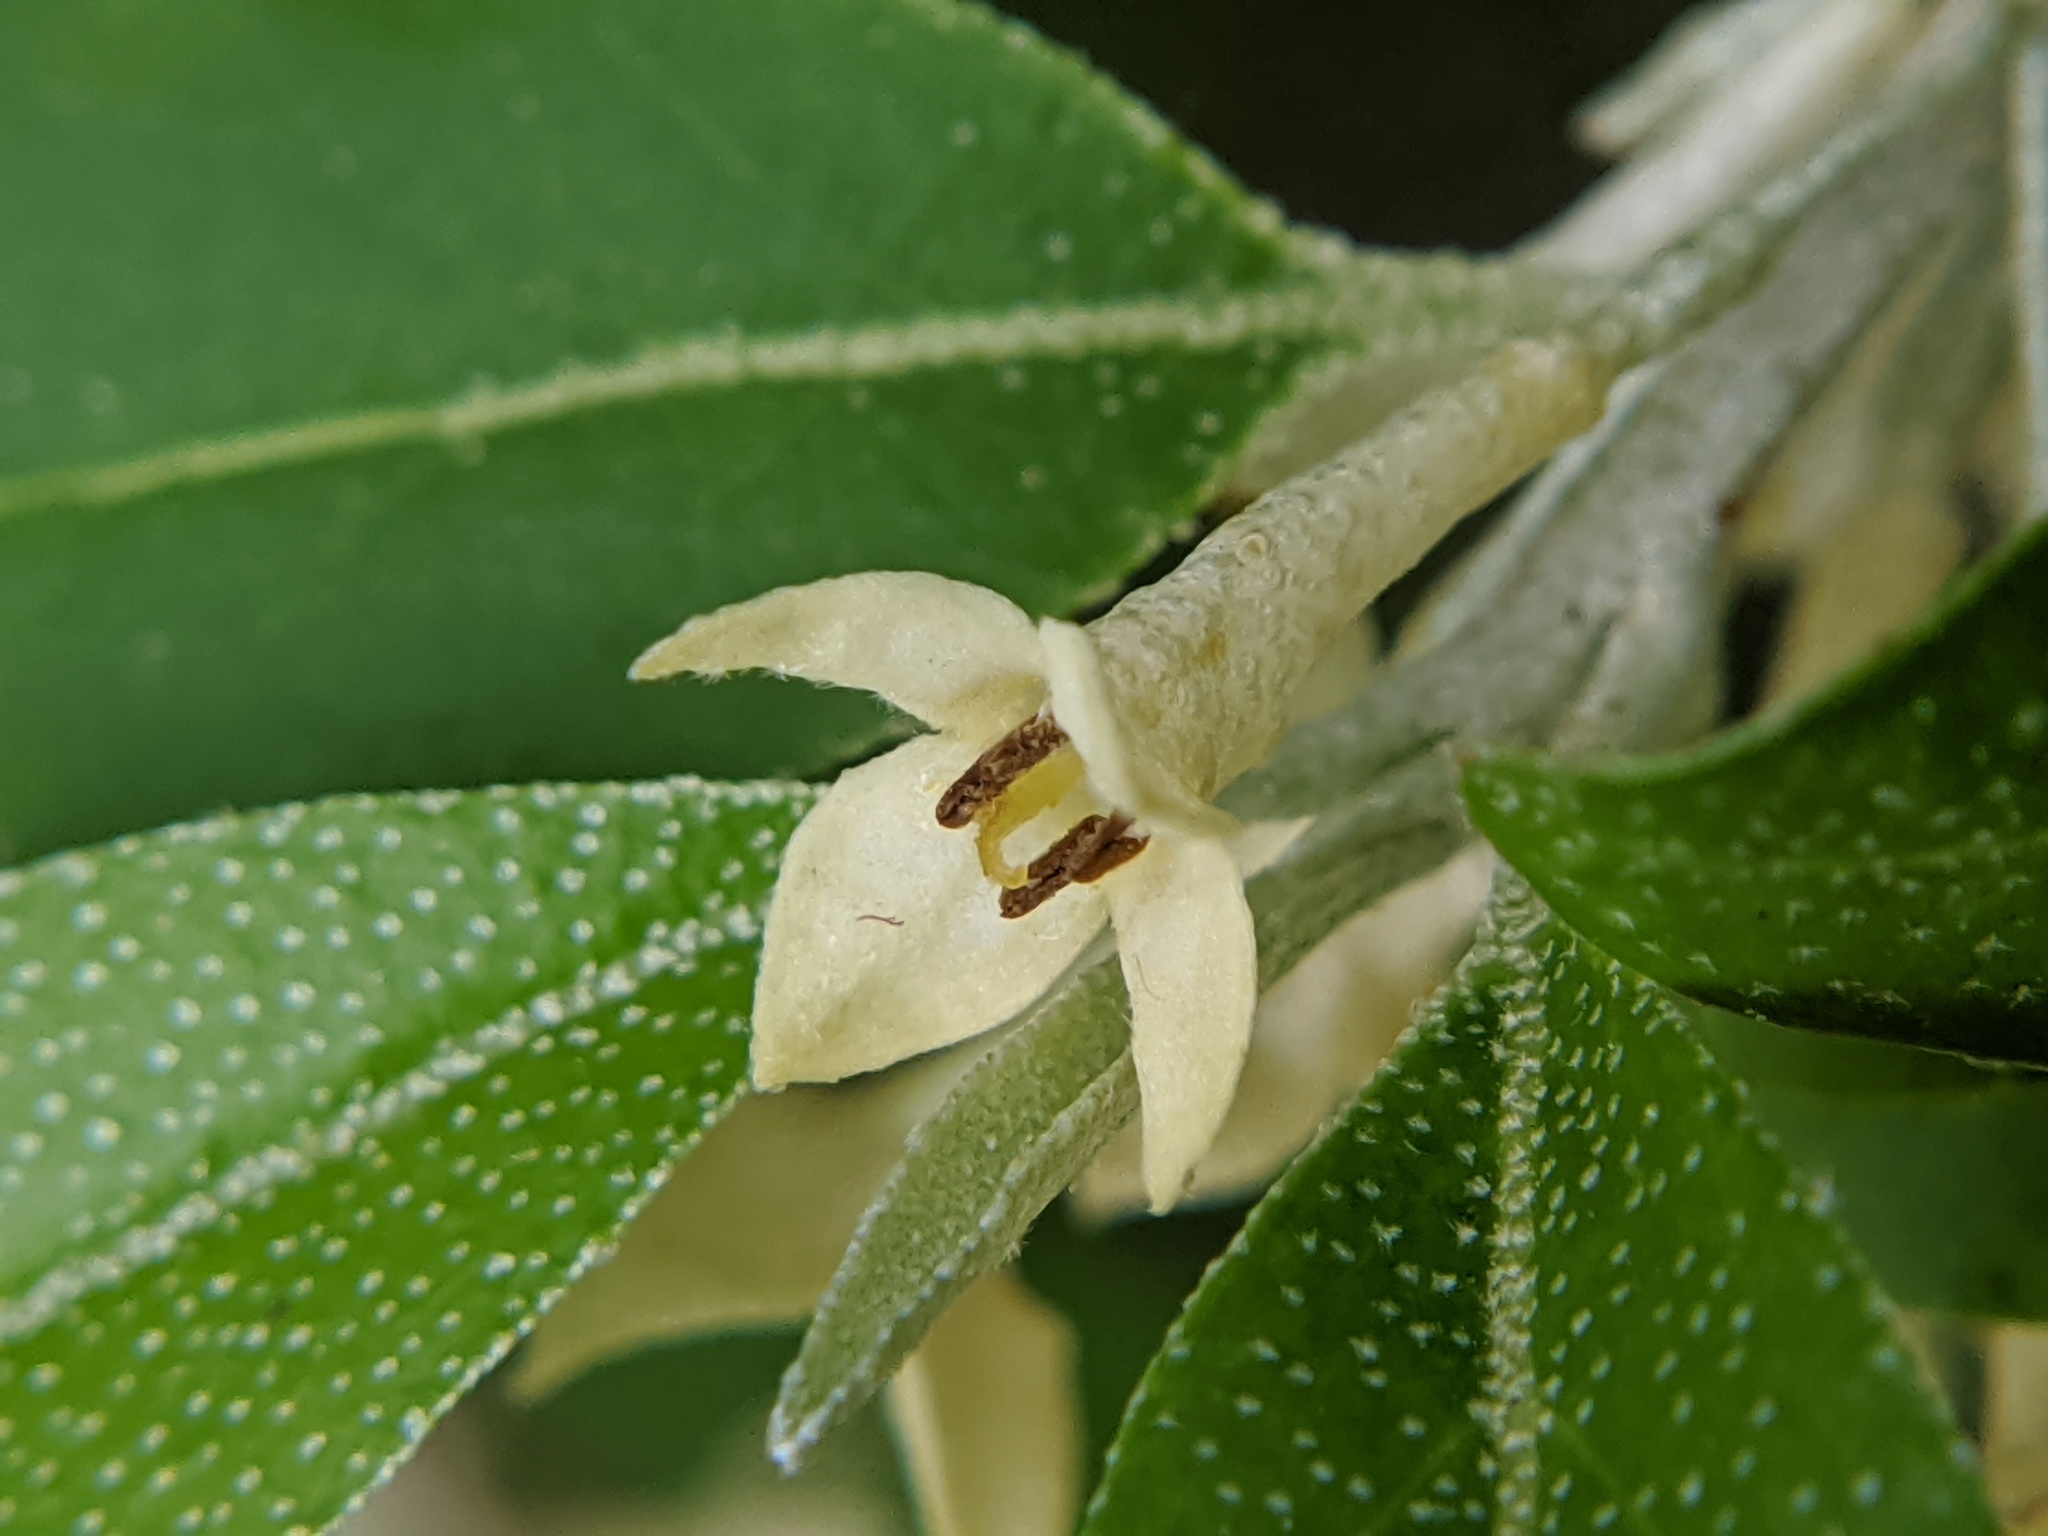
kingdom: Plantae
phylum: Tracheophyta
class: Magnoliopsida
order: Rosales
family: Elaeagnaceae
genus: Elaeagnus
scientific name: Elaeagnus umbellata
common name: Autumn olive
